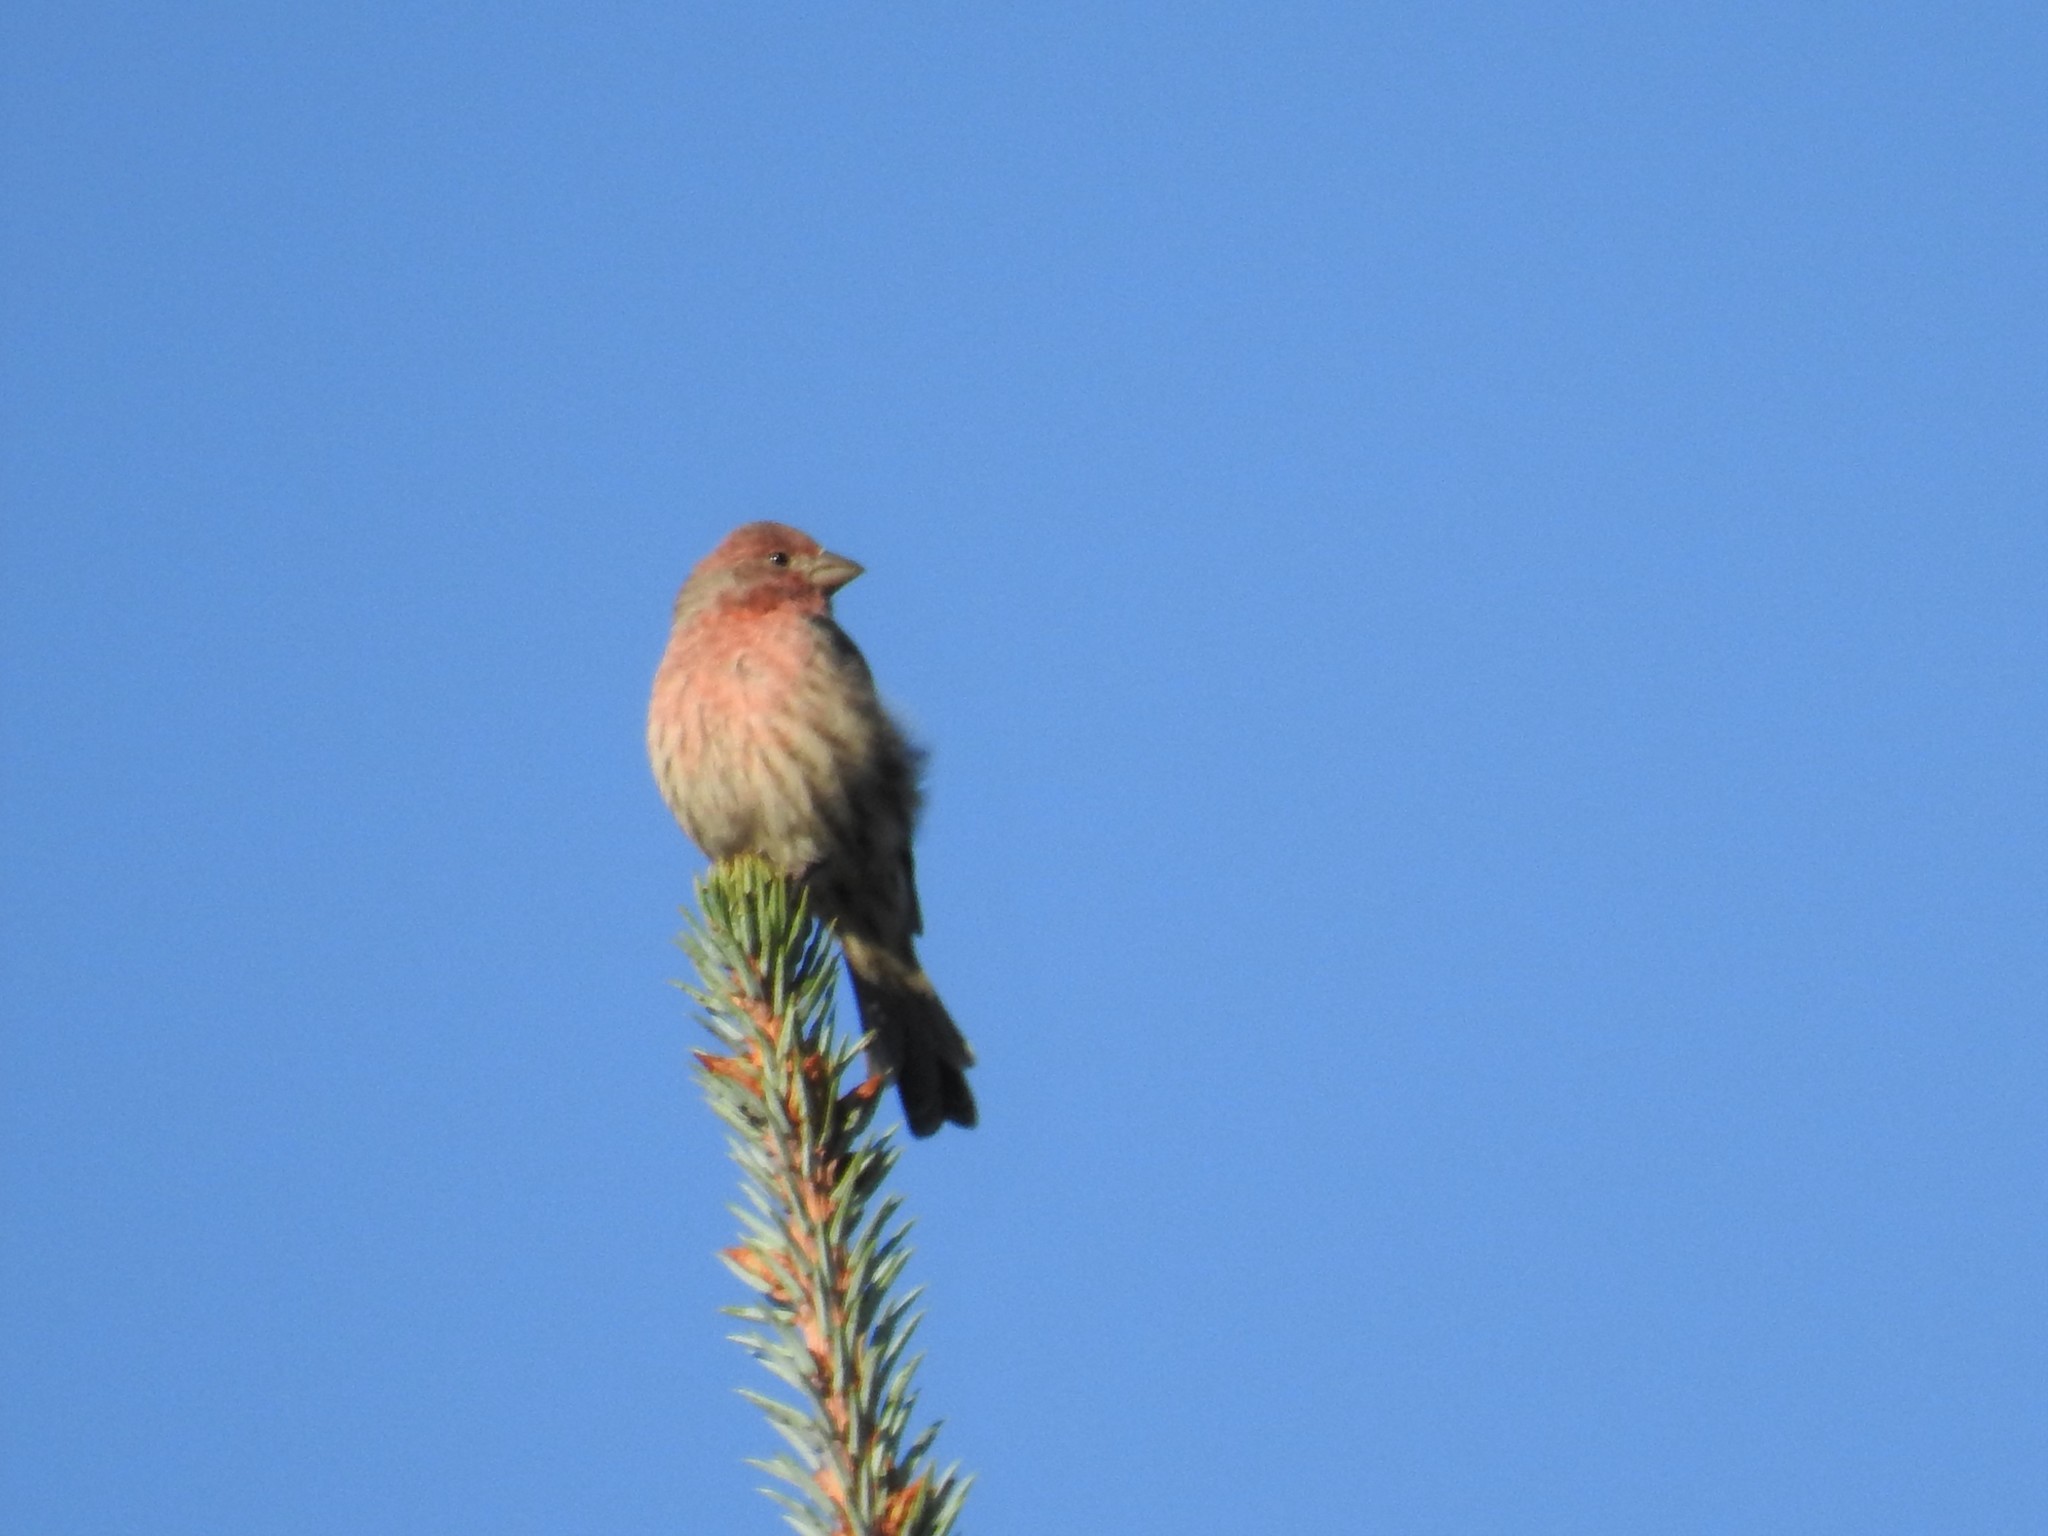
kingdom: Animalia
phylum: Chordata
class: Aves
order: Passeriformes
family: Fringillidae
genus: Haemorhous
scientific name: Haemorhous mexicanus
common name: House finch
